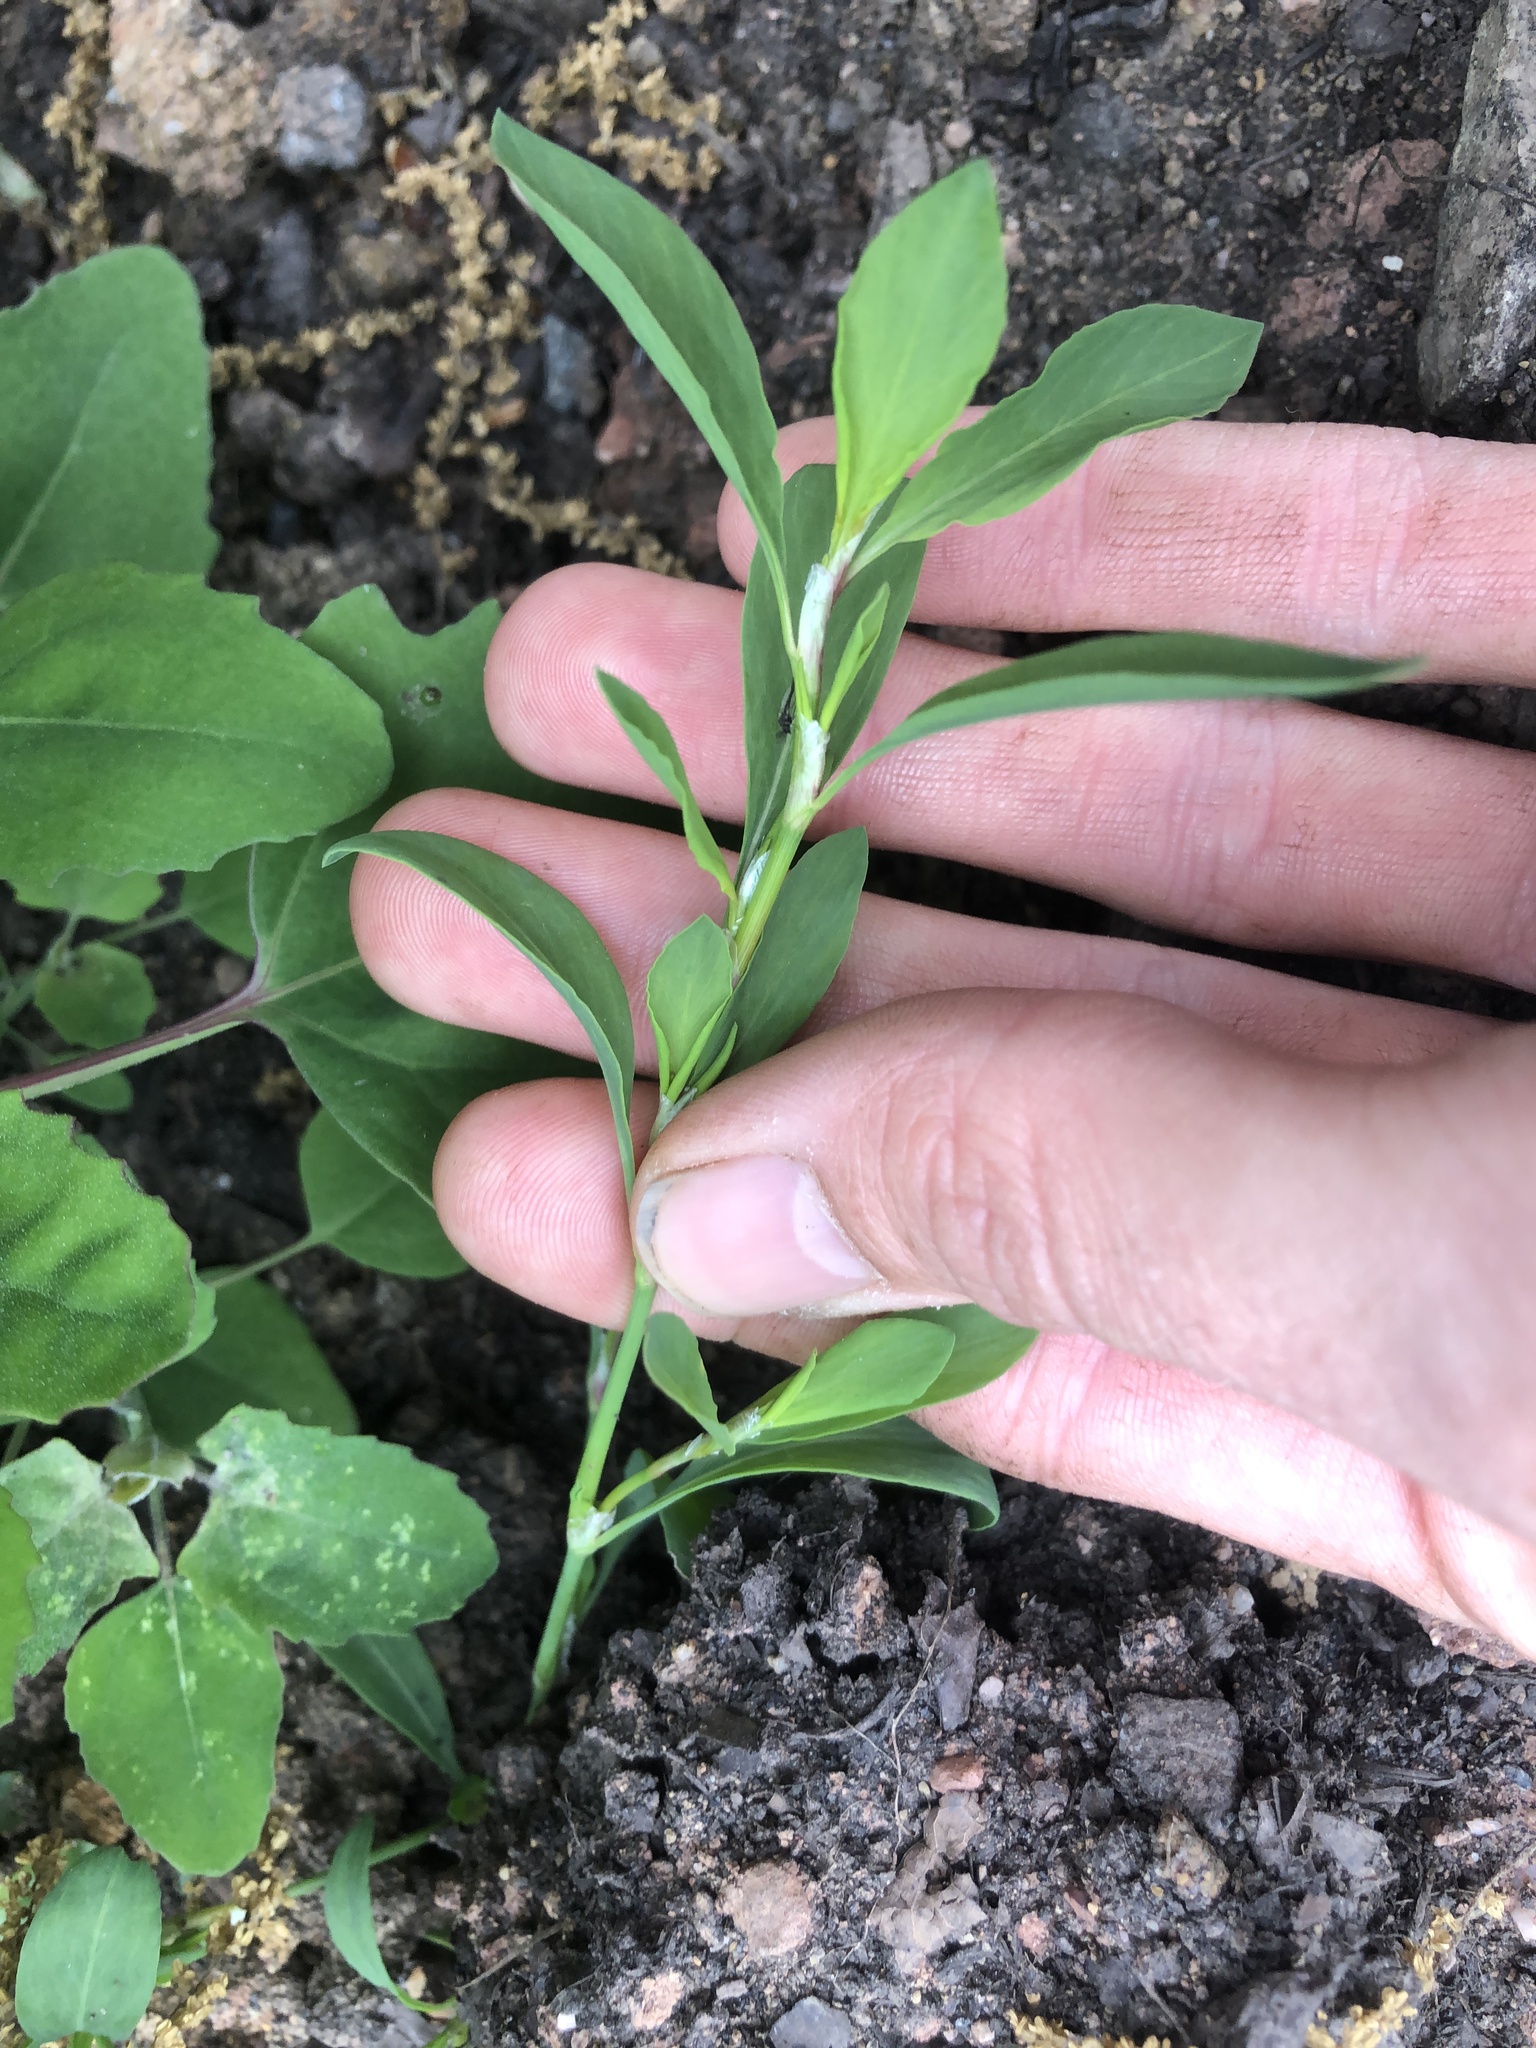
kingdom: Plantae
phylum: Tracheophyta
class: Magnoliopsida
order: Caryophyllales
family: Polygonaceae
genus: Polygonum
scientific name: Polygonum aviculare
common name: Prostrate knotweed
